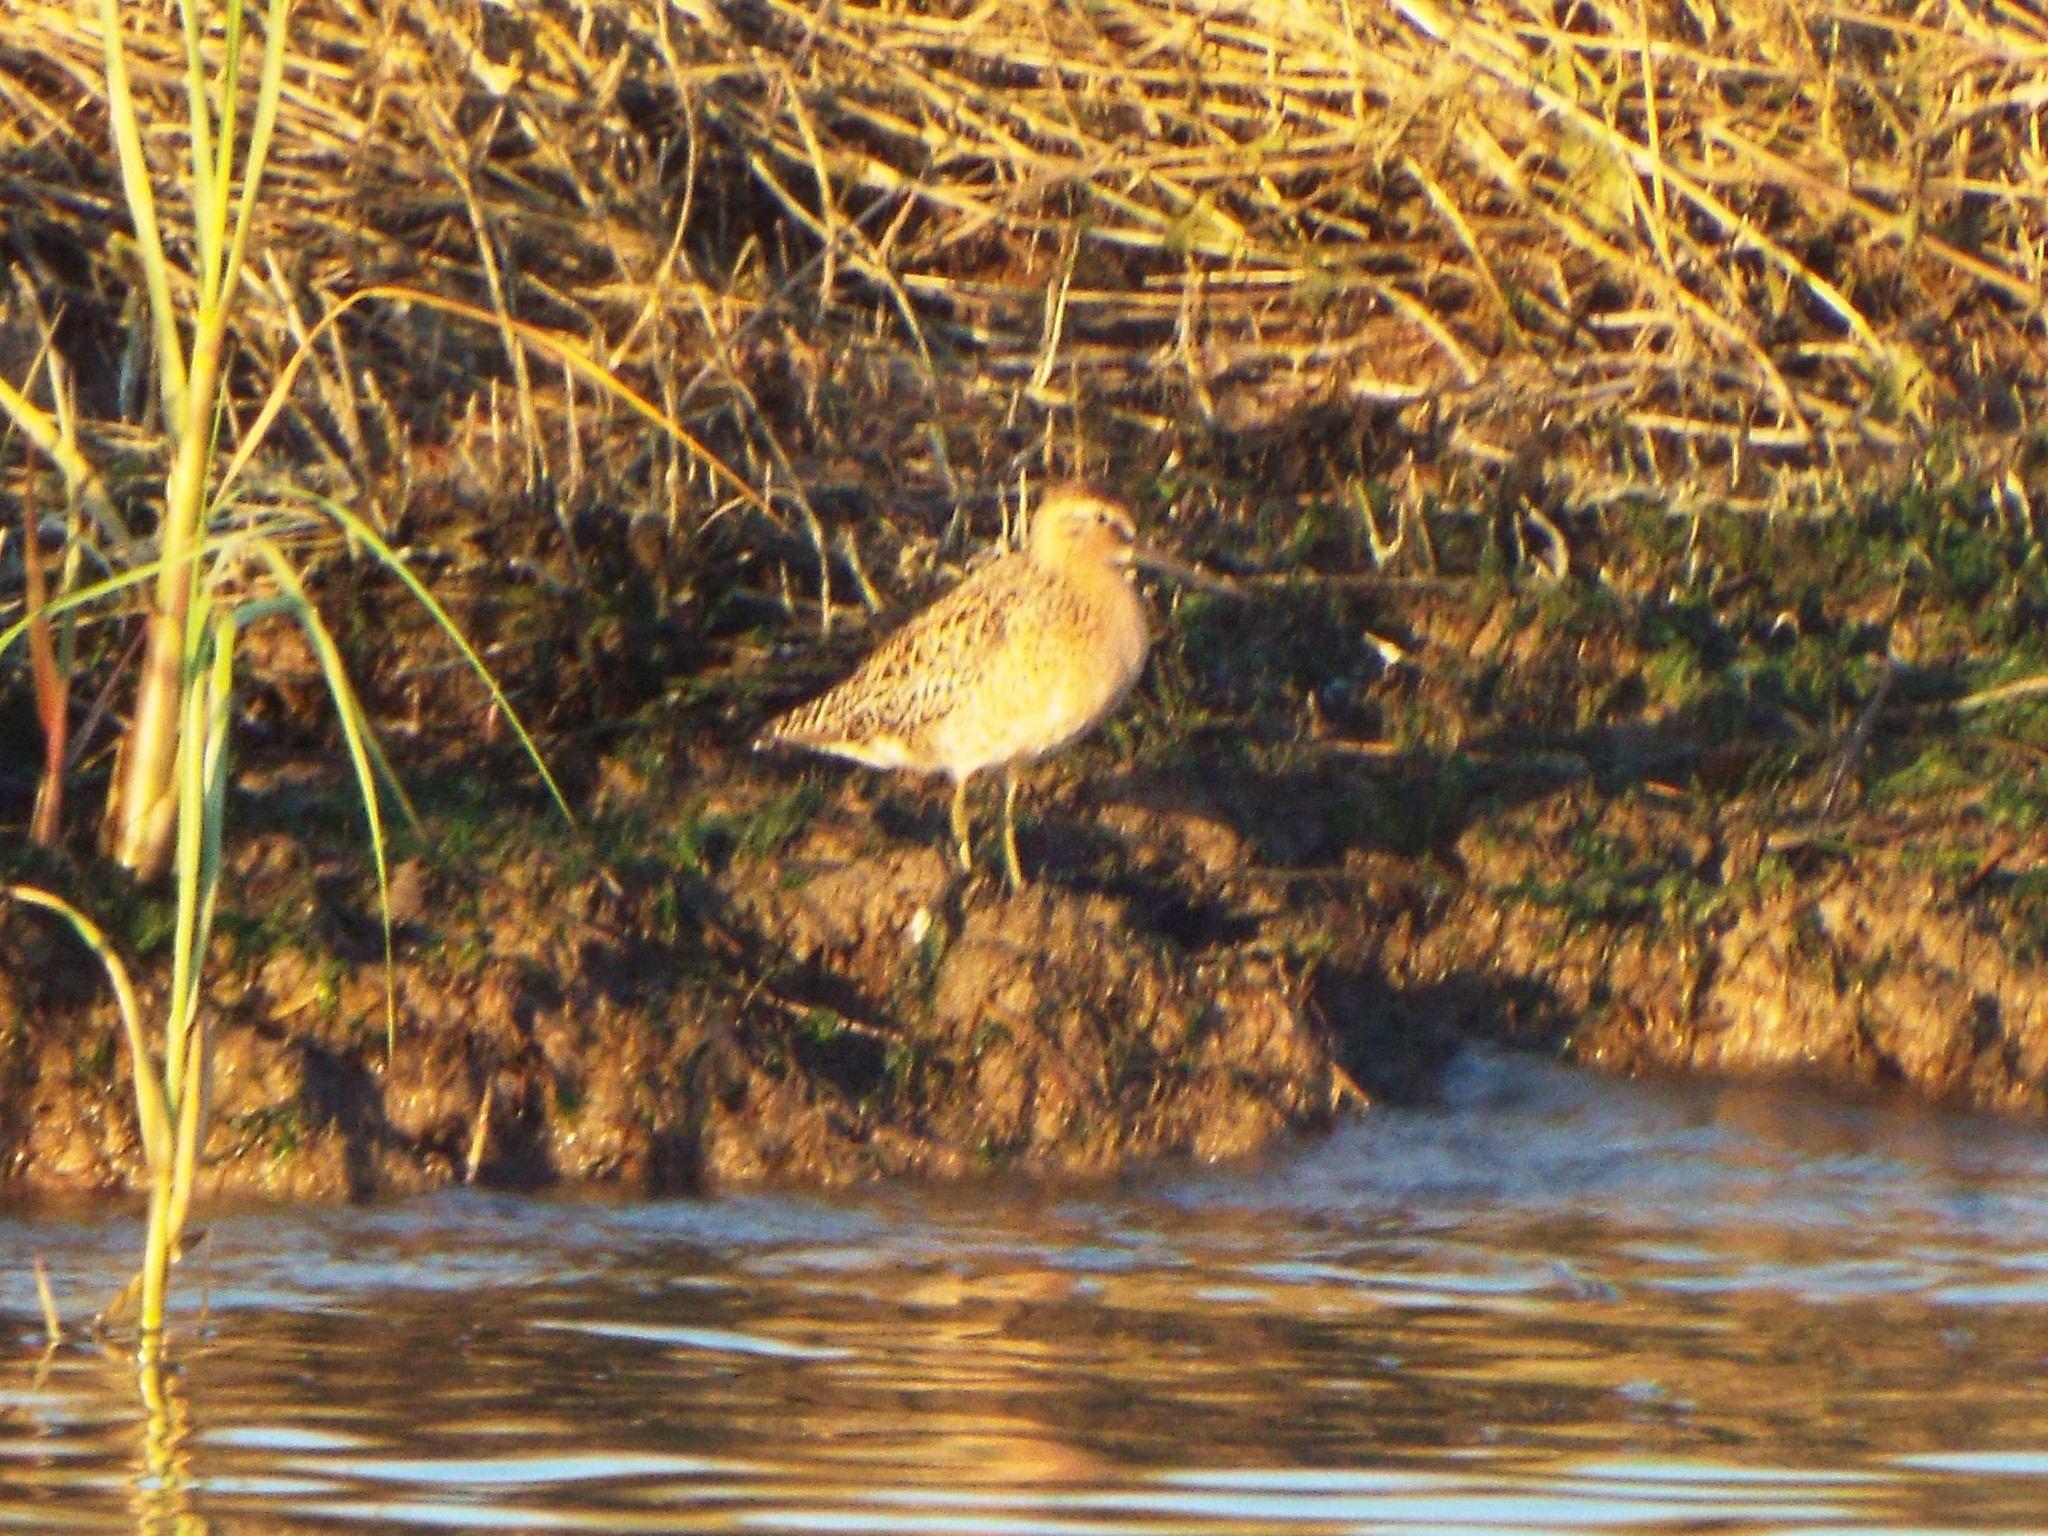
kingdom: Animalia
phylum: Chordata
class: Aves
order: Charadriiformes
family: Scolopacidae
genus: Limnodromus
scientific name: Limnodromus griseus
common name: Short-billed dowitcher
